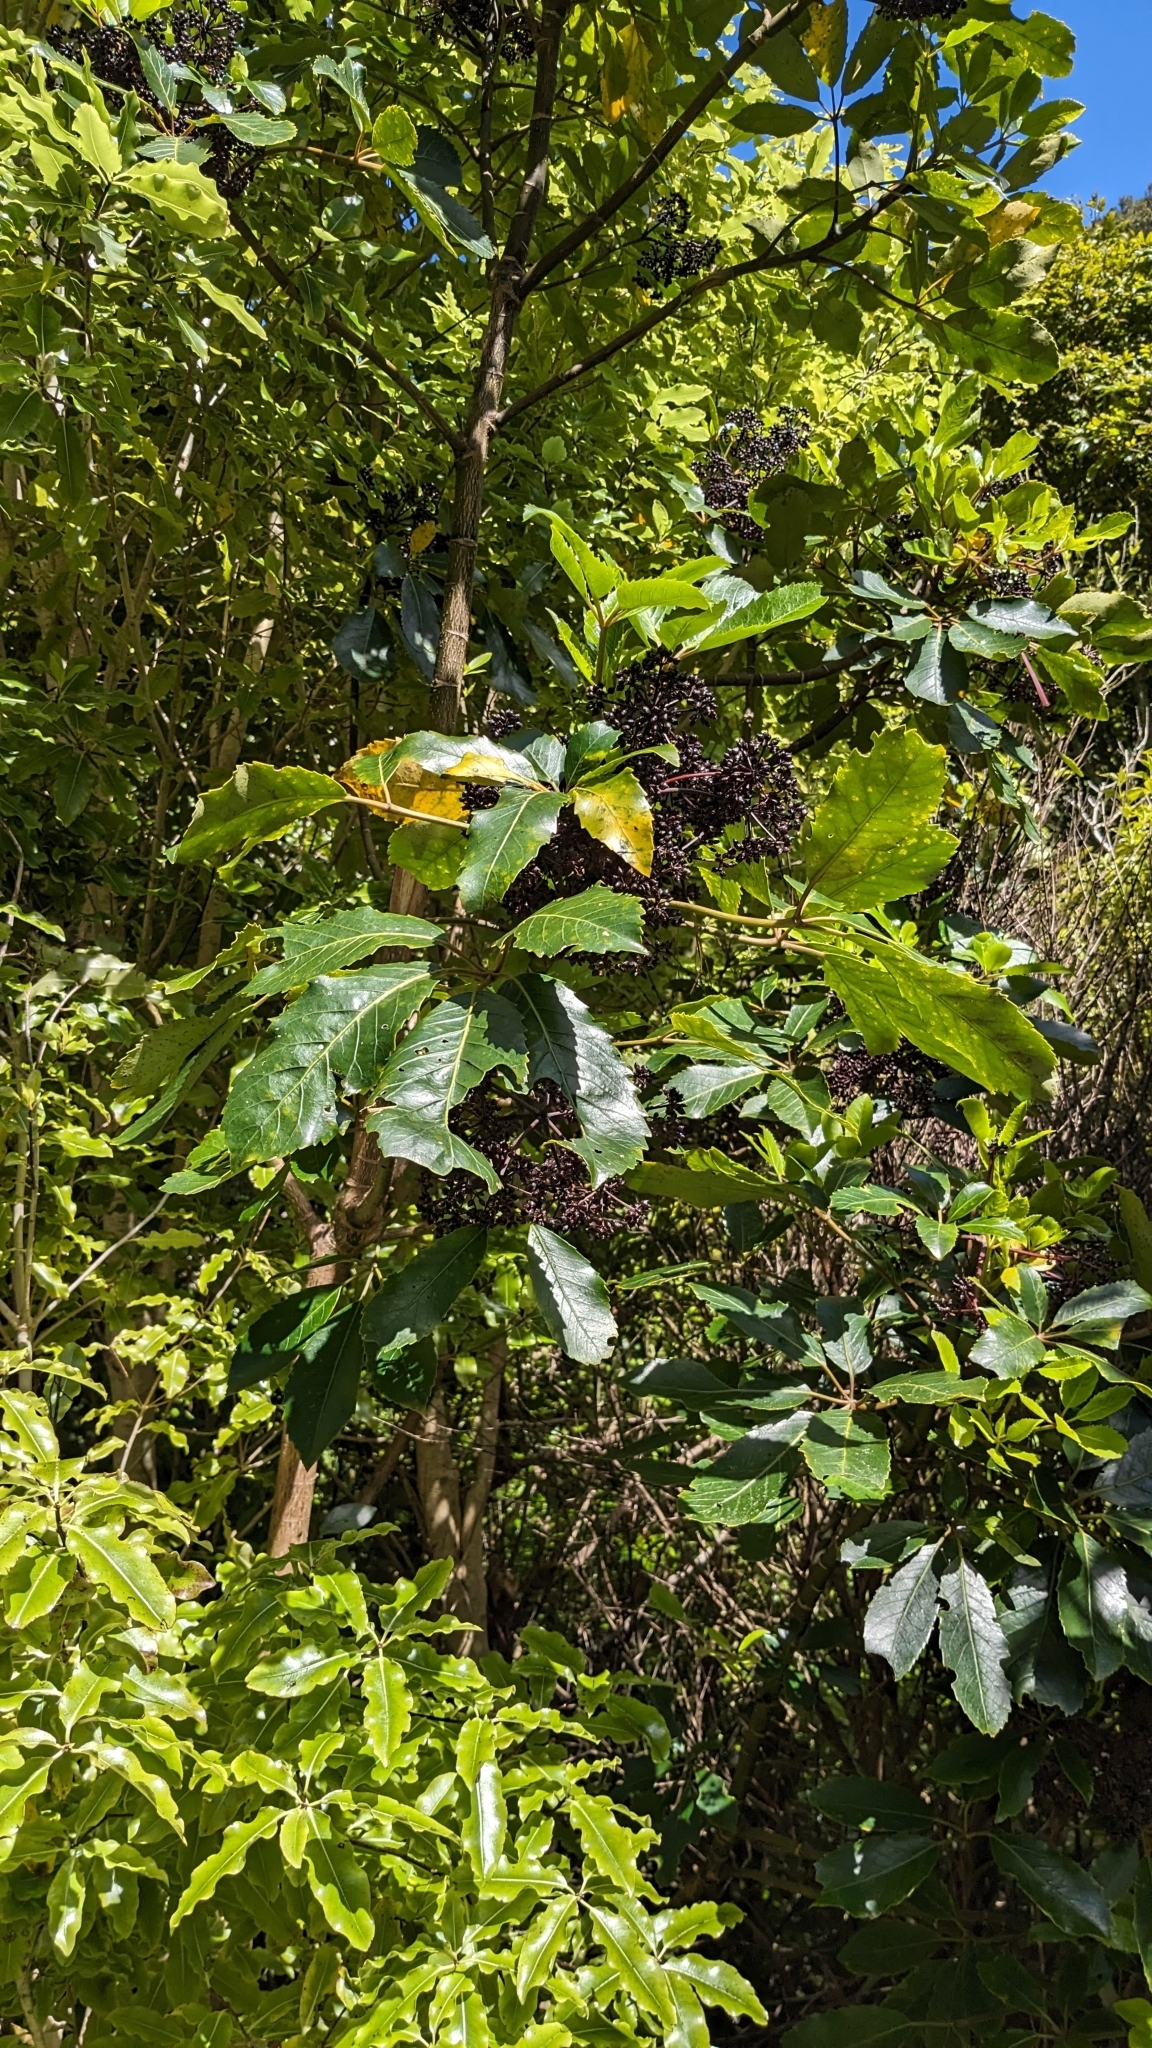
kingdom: Plantae
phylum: Tracheophyta
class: Magnoliopsida
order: Apiales
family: Araliaceae
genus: Neopanax
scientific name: Neopanax arboreus
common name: Five-fingers
